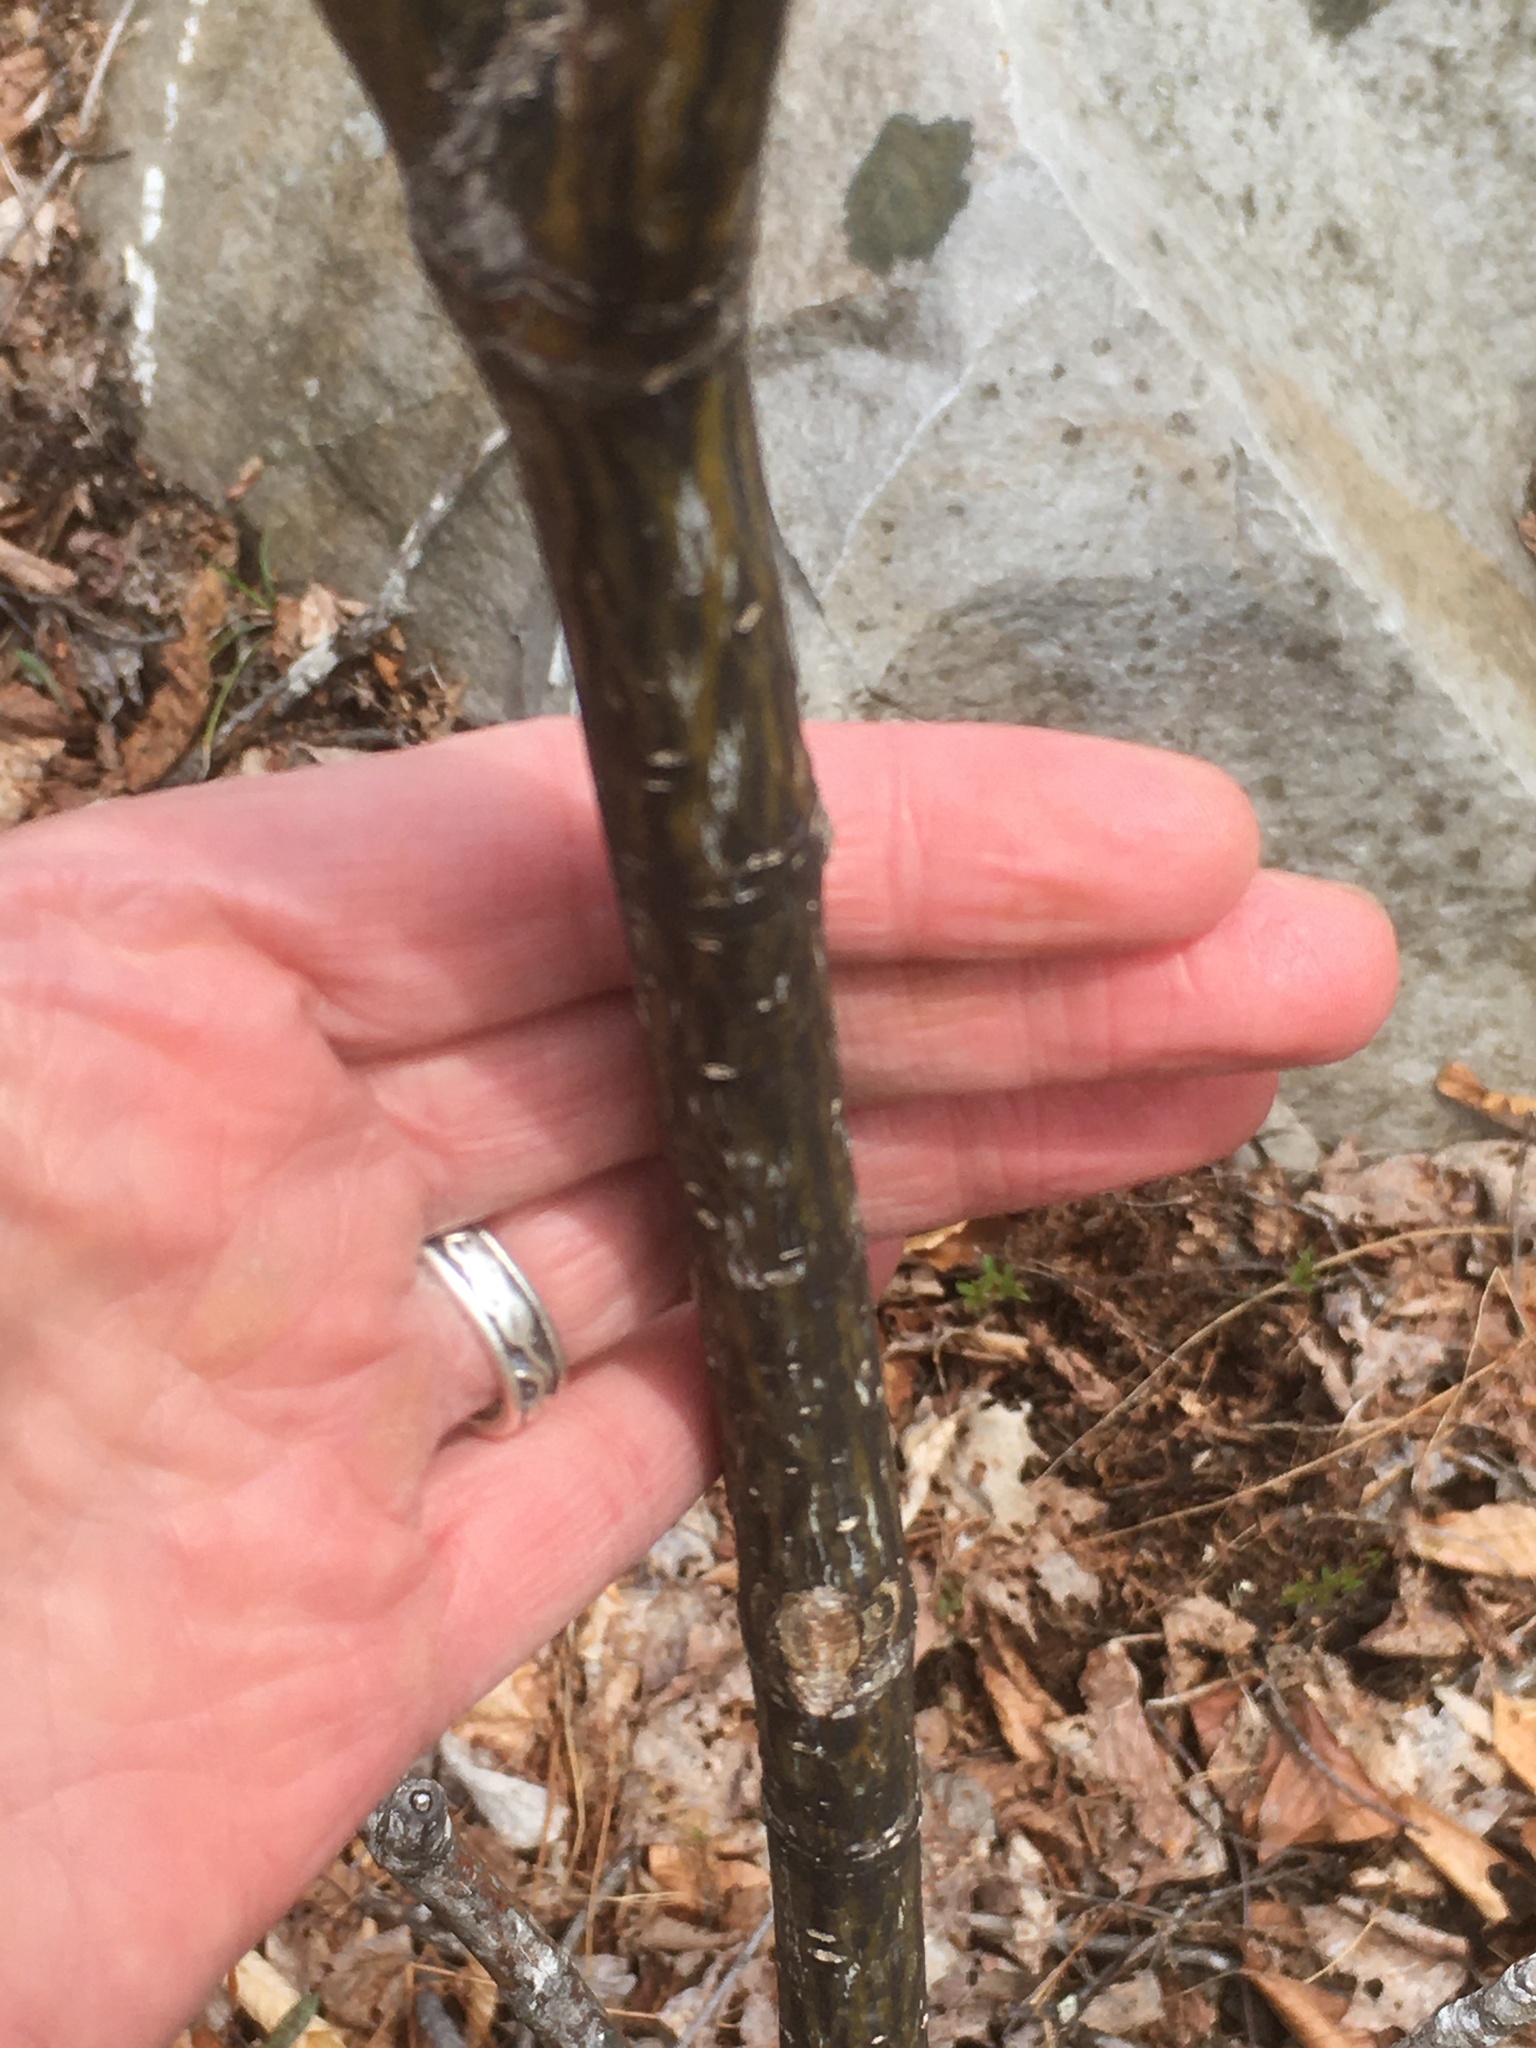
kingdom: Plantae
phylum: Tracheophyta
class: Magnoliopsida
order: Sapindales
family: Sapindaceae
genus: Acer
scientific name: Acer pensylvanicum
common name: Moosewood
